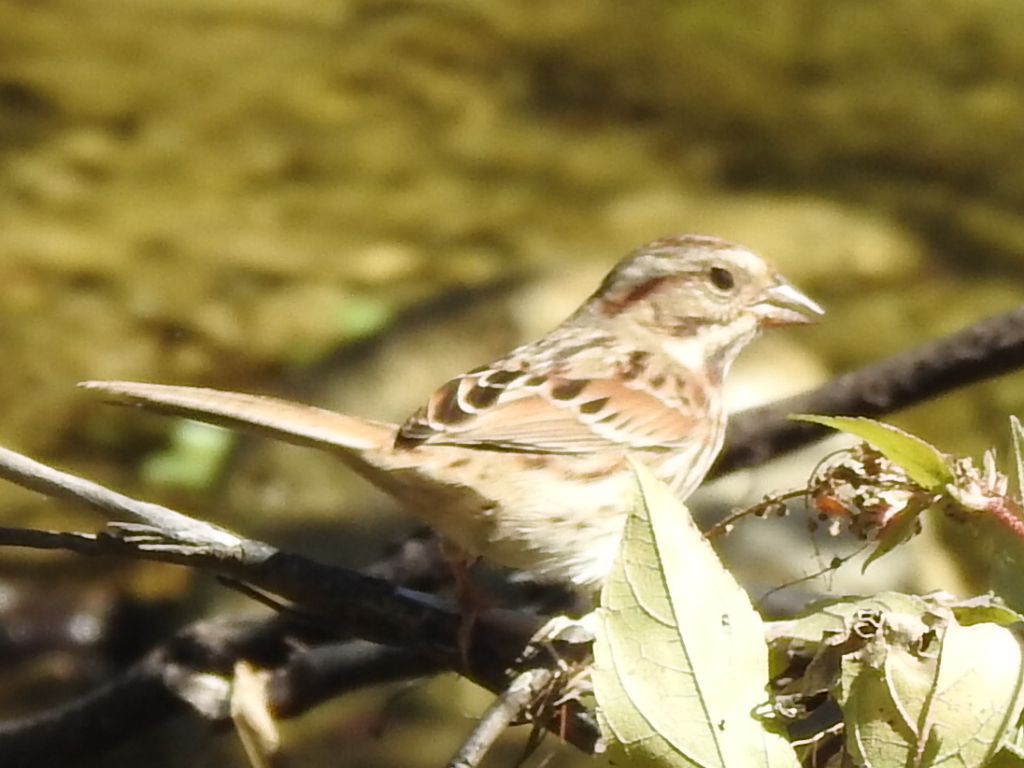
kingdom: Animalia
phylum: Chordata
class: Aves
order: Passeriformes
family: Passerellidae
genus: Melospiza
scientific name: Melospiza melodia
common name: Song sparrow
